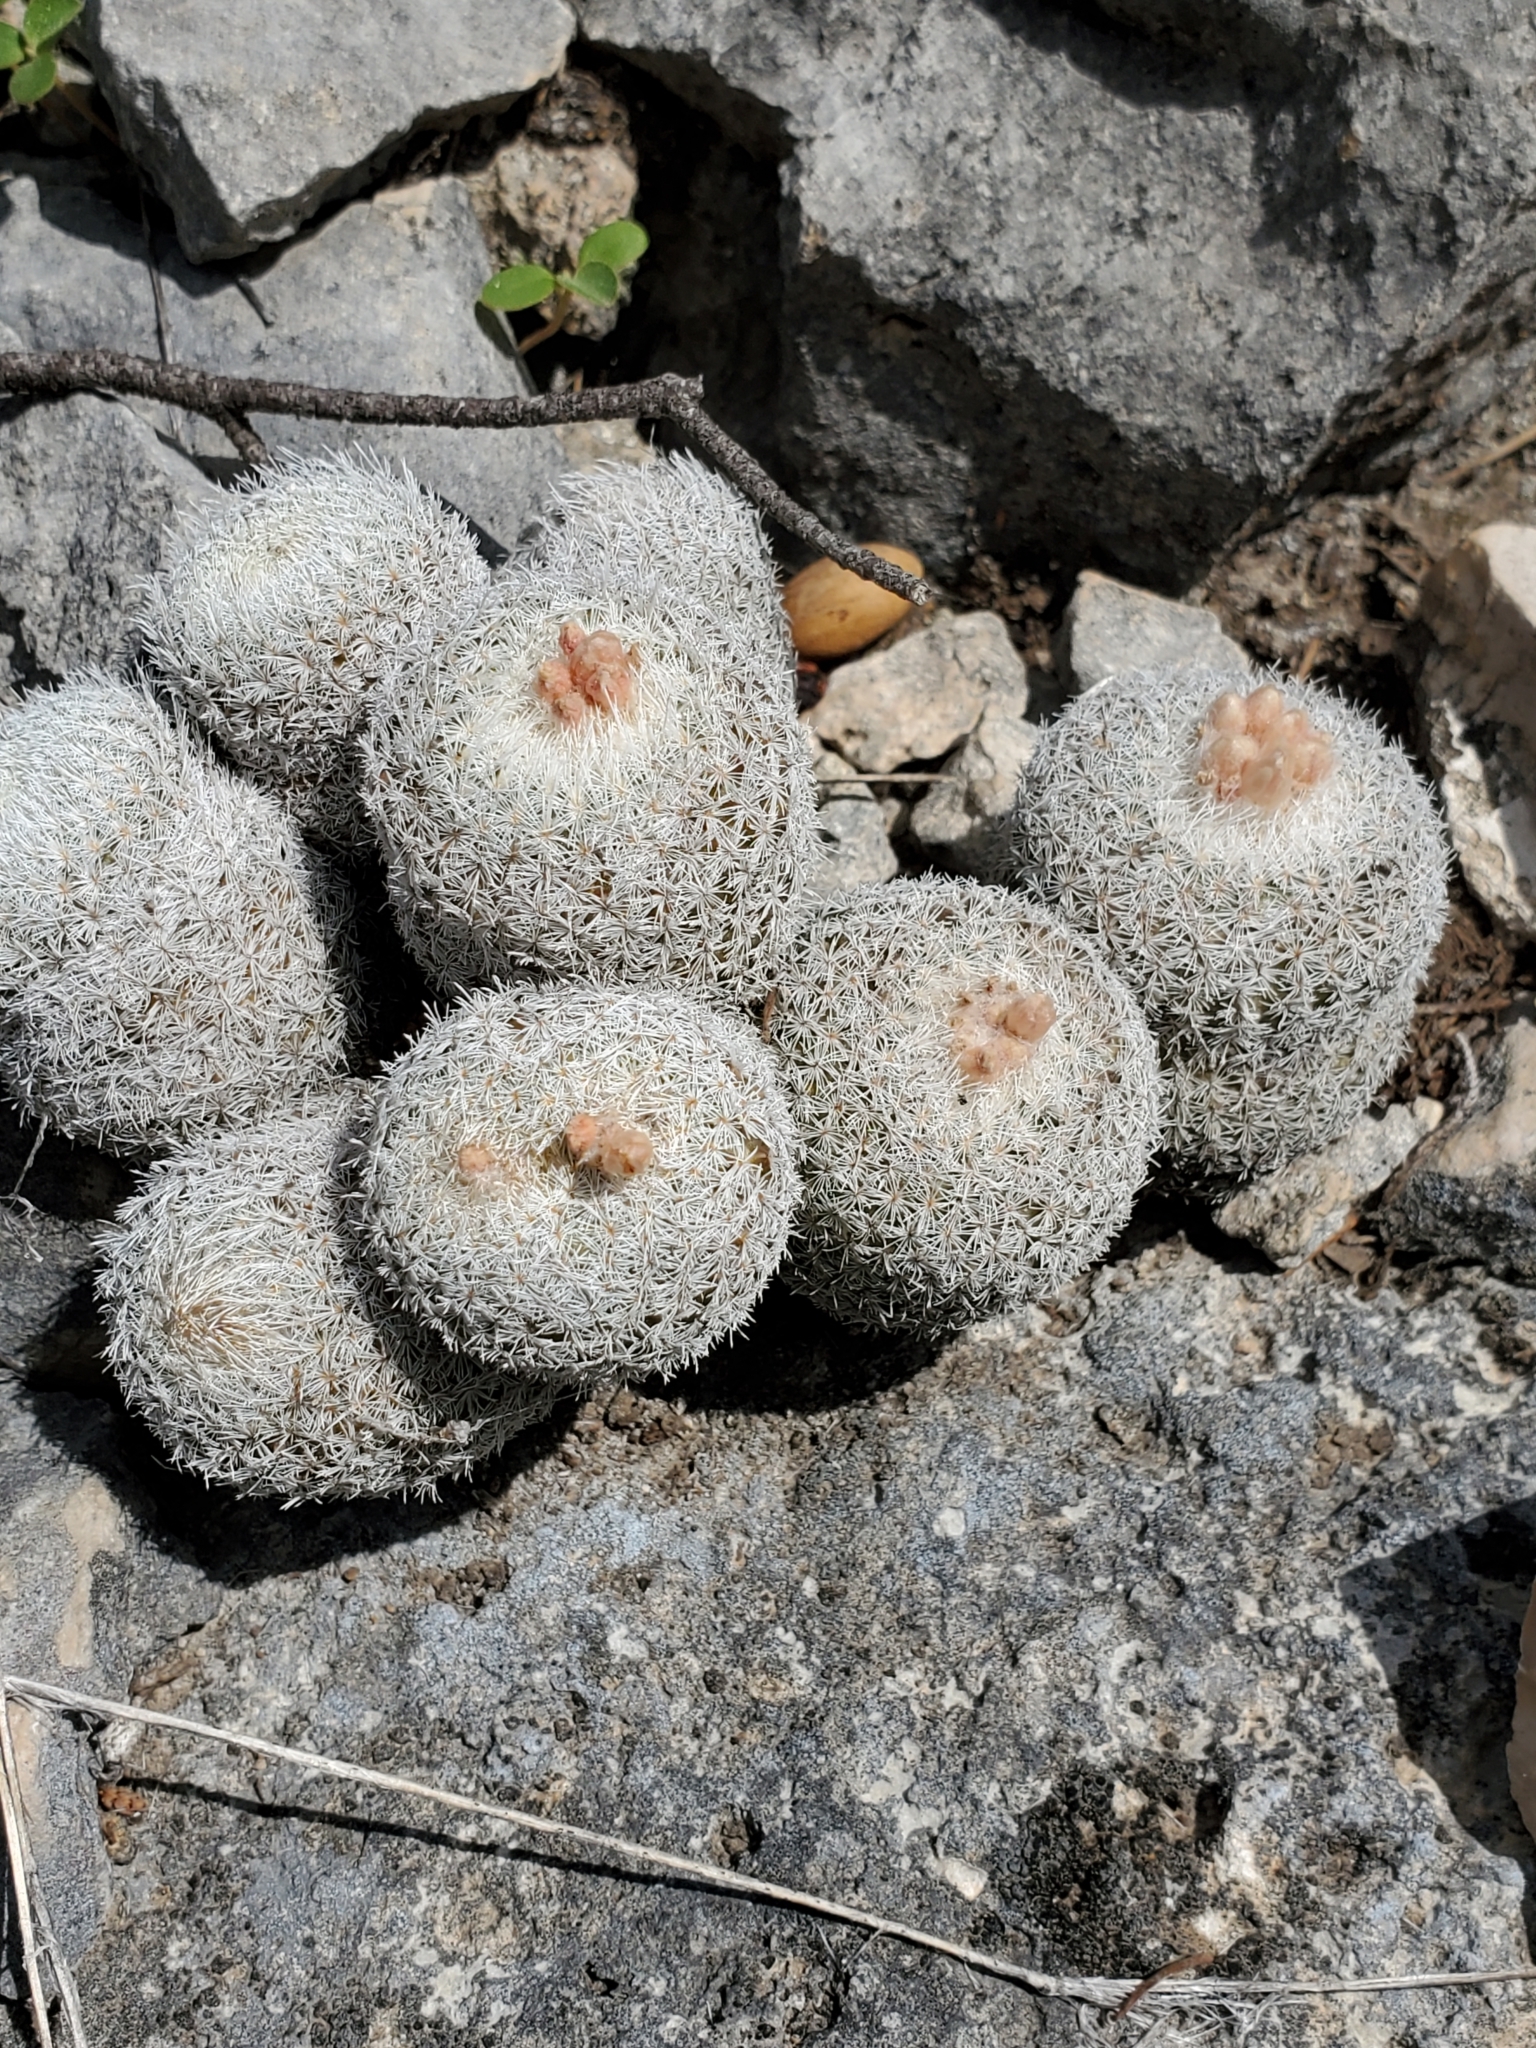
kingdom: Plantae
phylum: Tracheophyta
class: Magnoliopsida
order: Caryophyllales
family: Cactaceae
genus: Epithelantha
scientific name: Epithelantha micromeris
